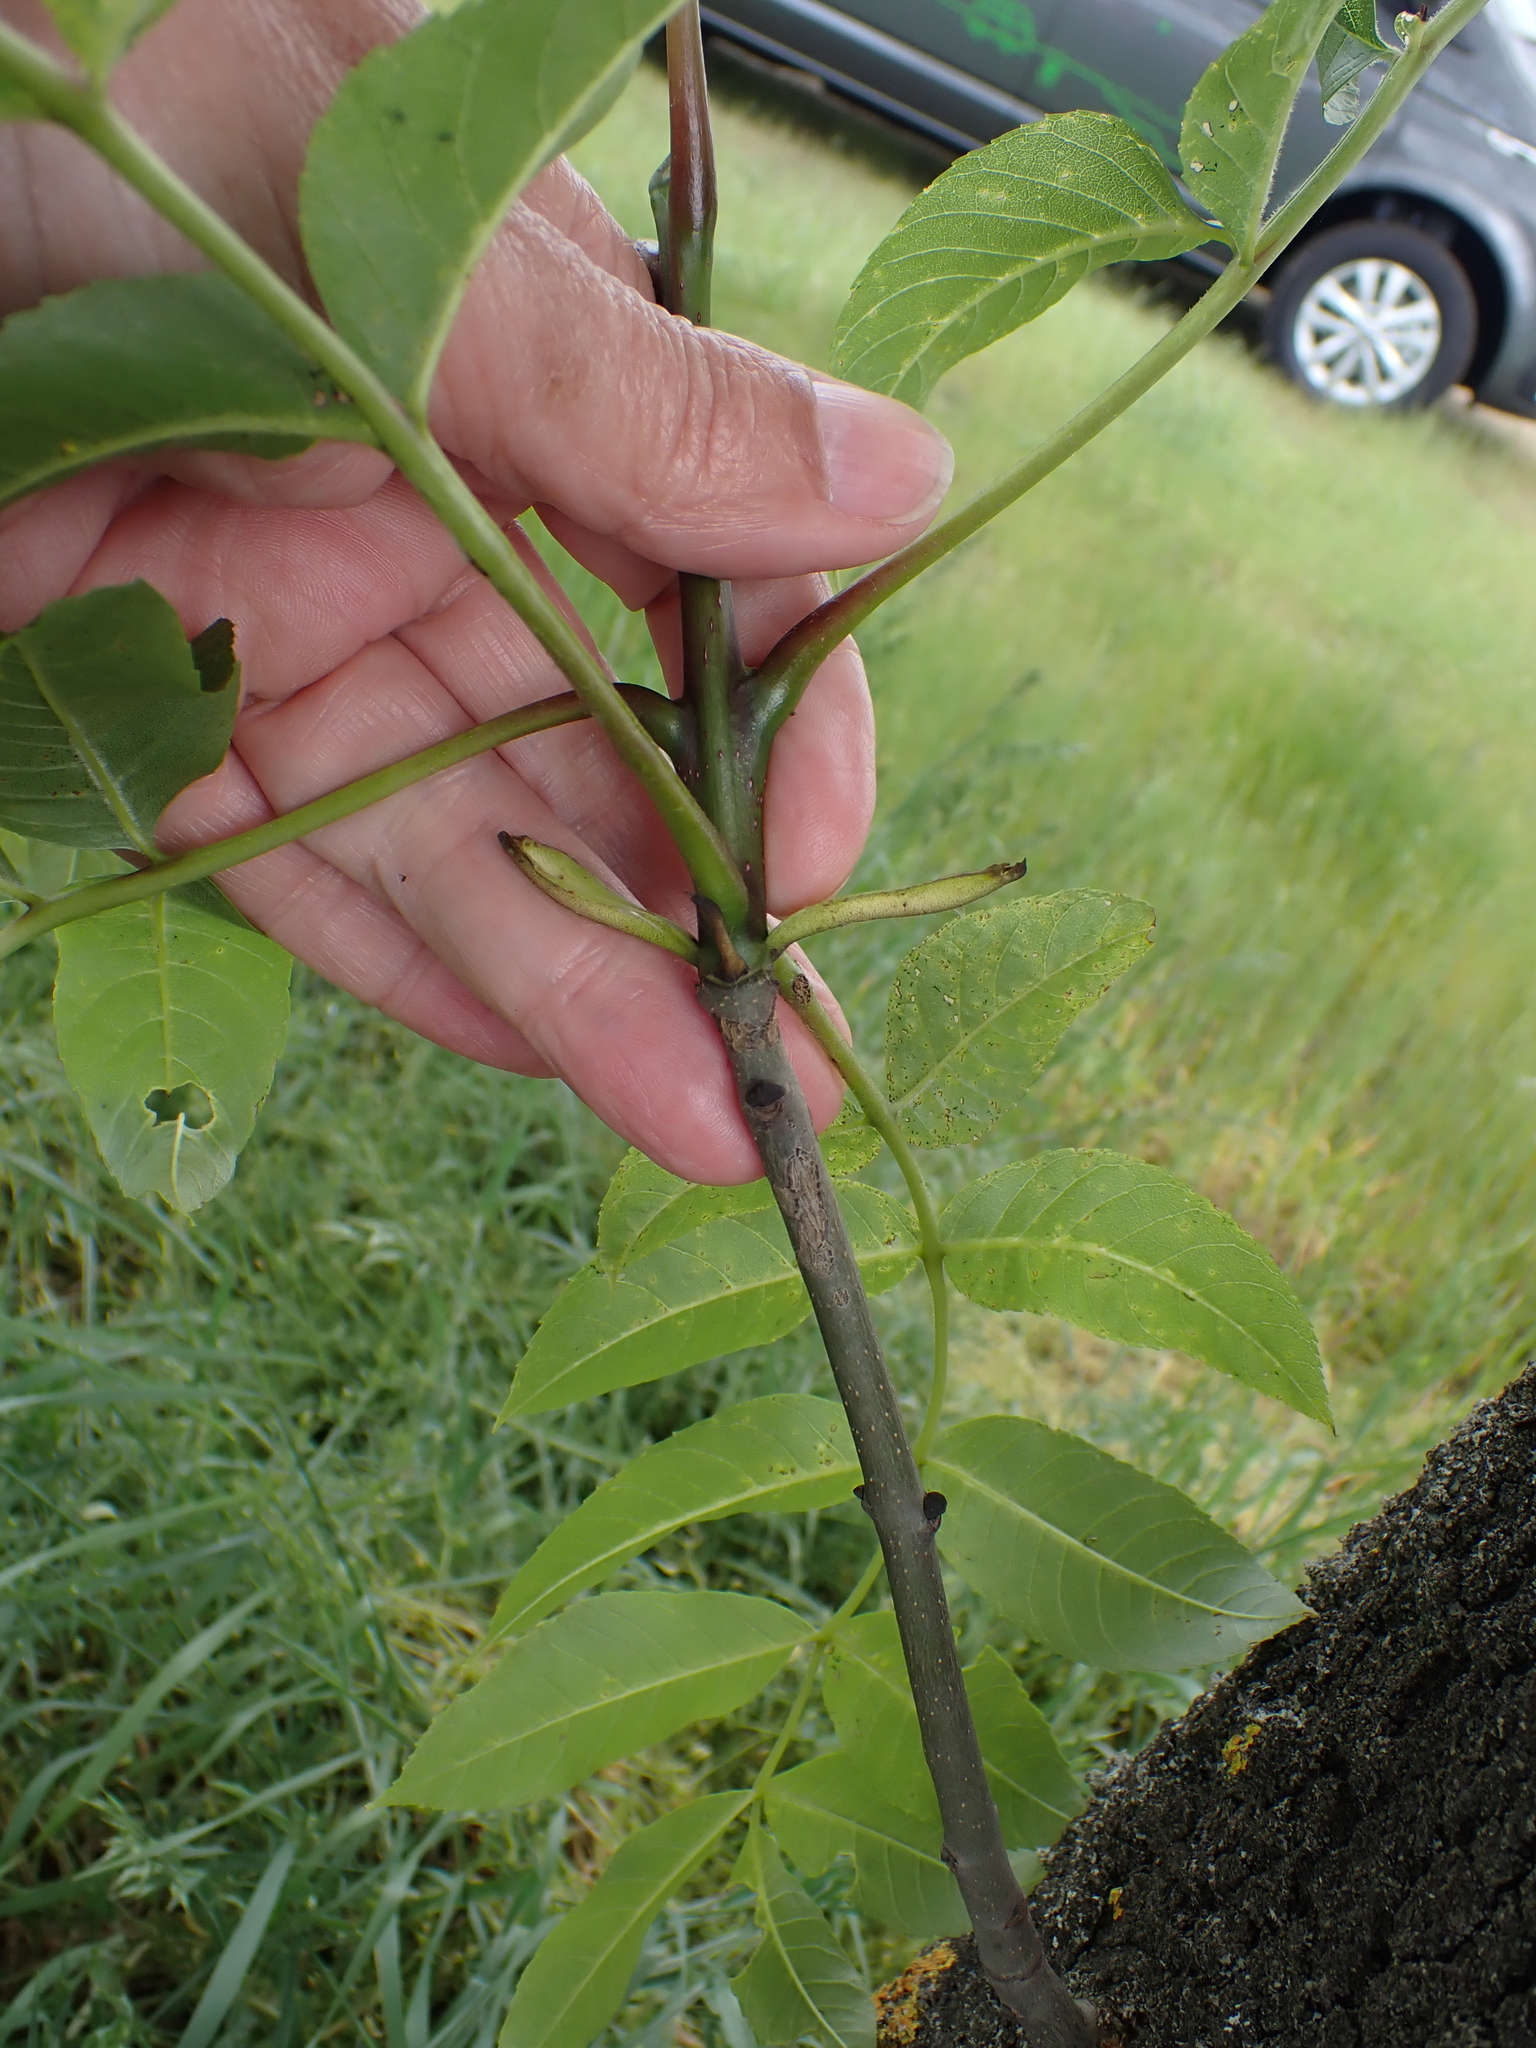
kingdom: Plantae
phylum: Tracheophyta
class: Magnoliopsida
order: Lamiales
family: Oleaceae
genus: Fraxinus
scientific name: Fraxinus excelsior
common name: European ash
